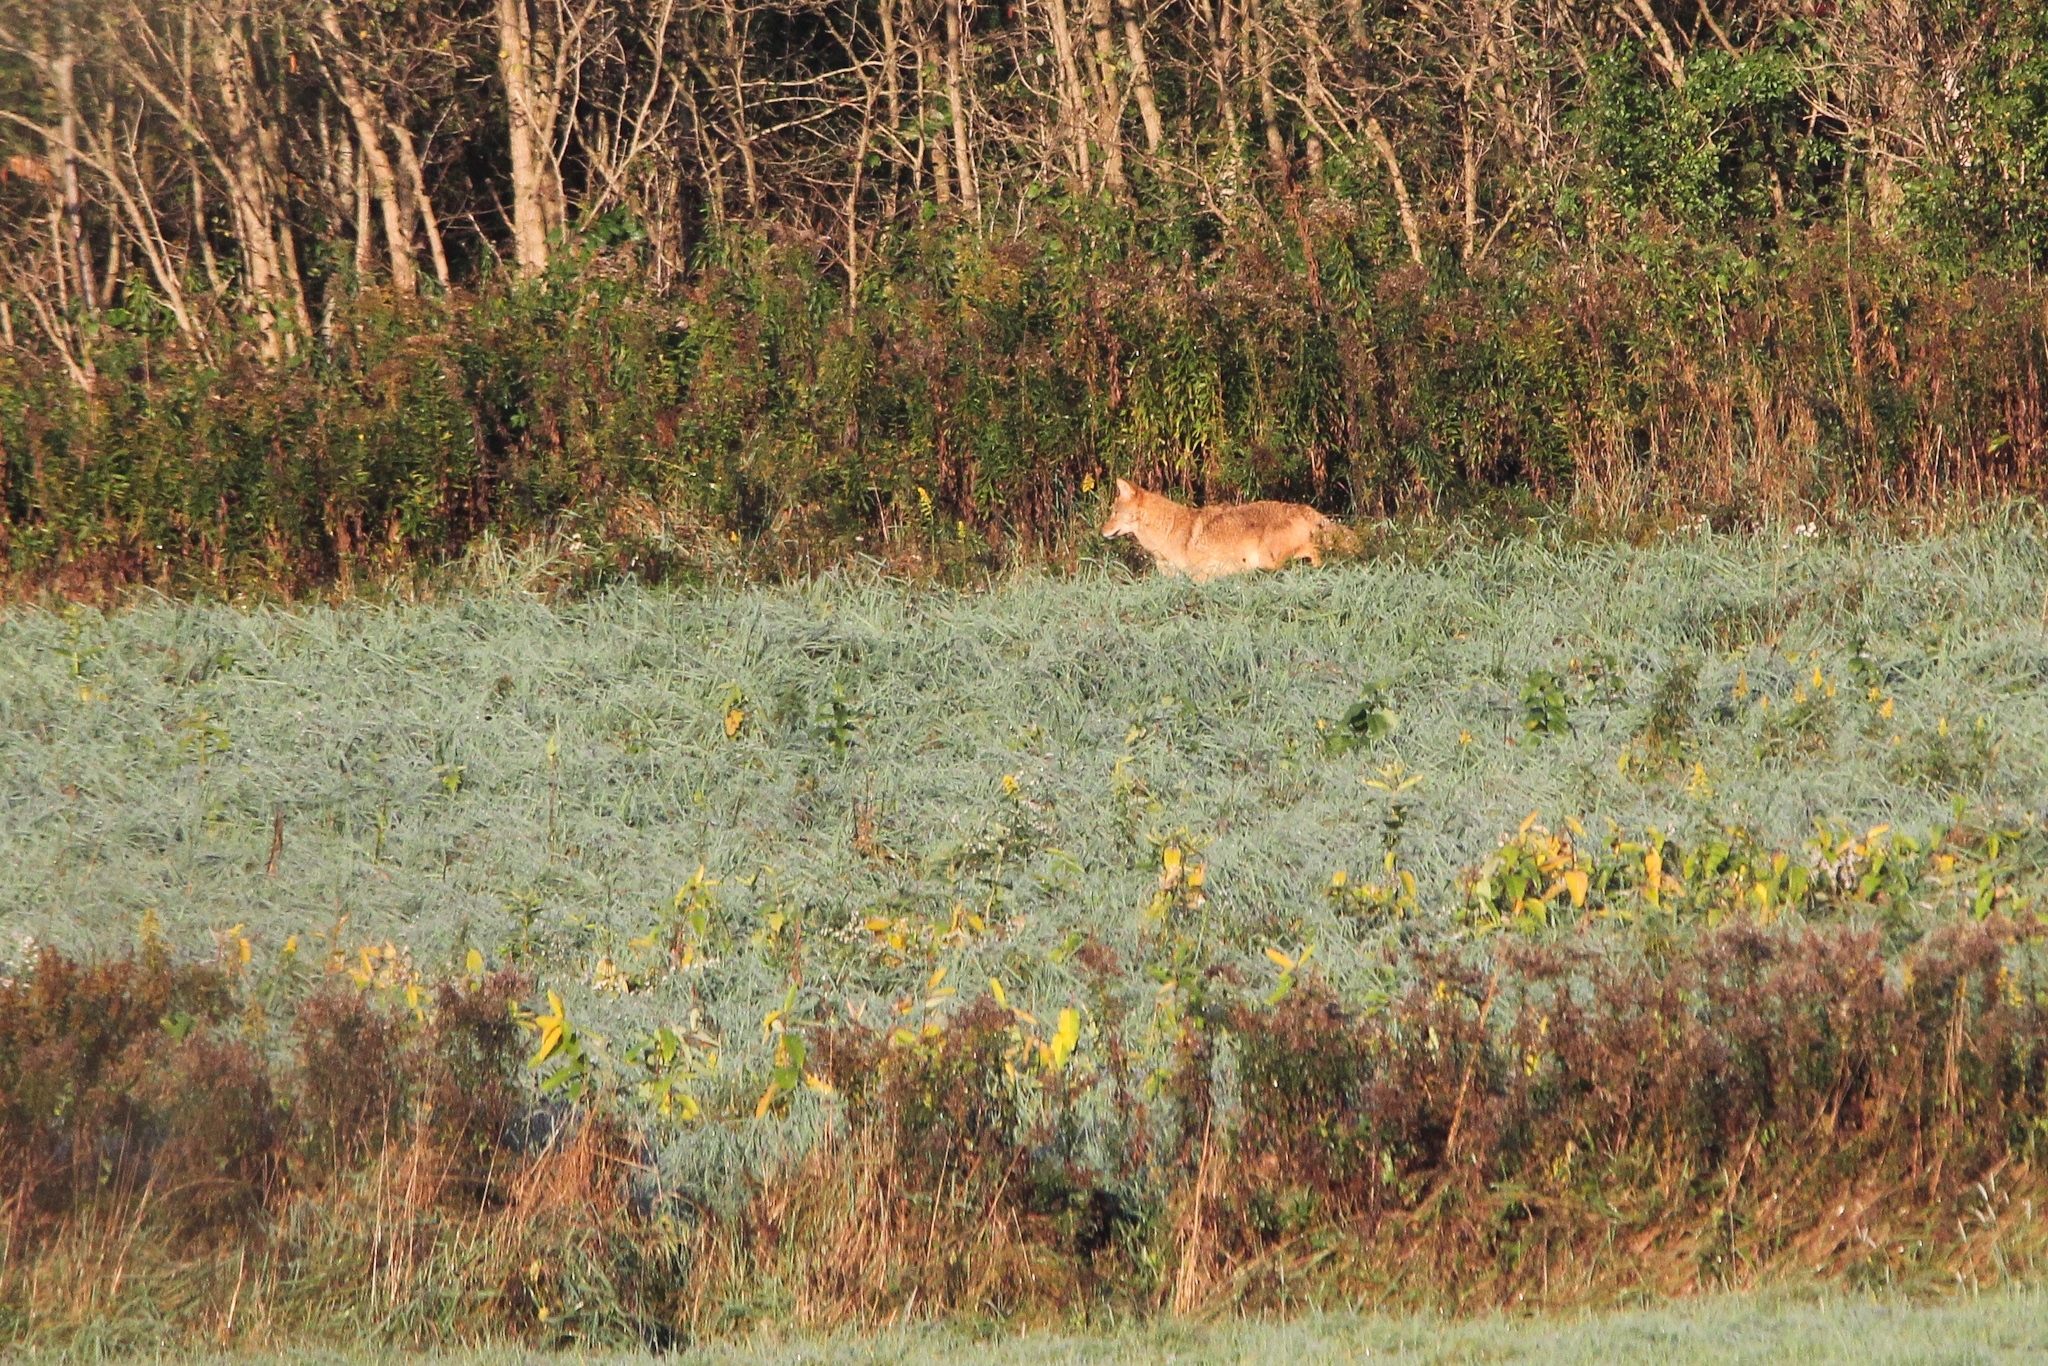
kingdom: Animalia
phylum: Chordata
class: Mammalia
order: Carnivora
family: Canidae
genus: Canis
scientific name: Canis latrans
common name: Coyote
